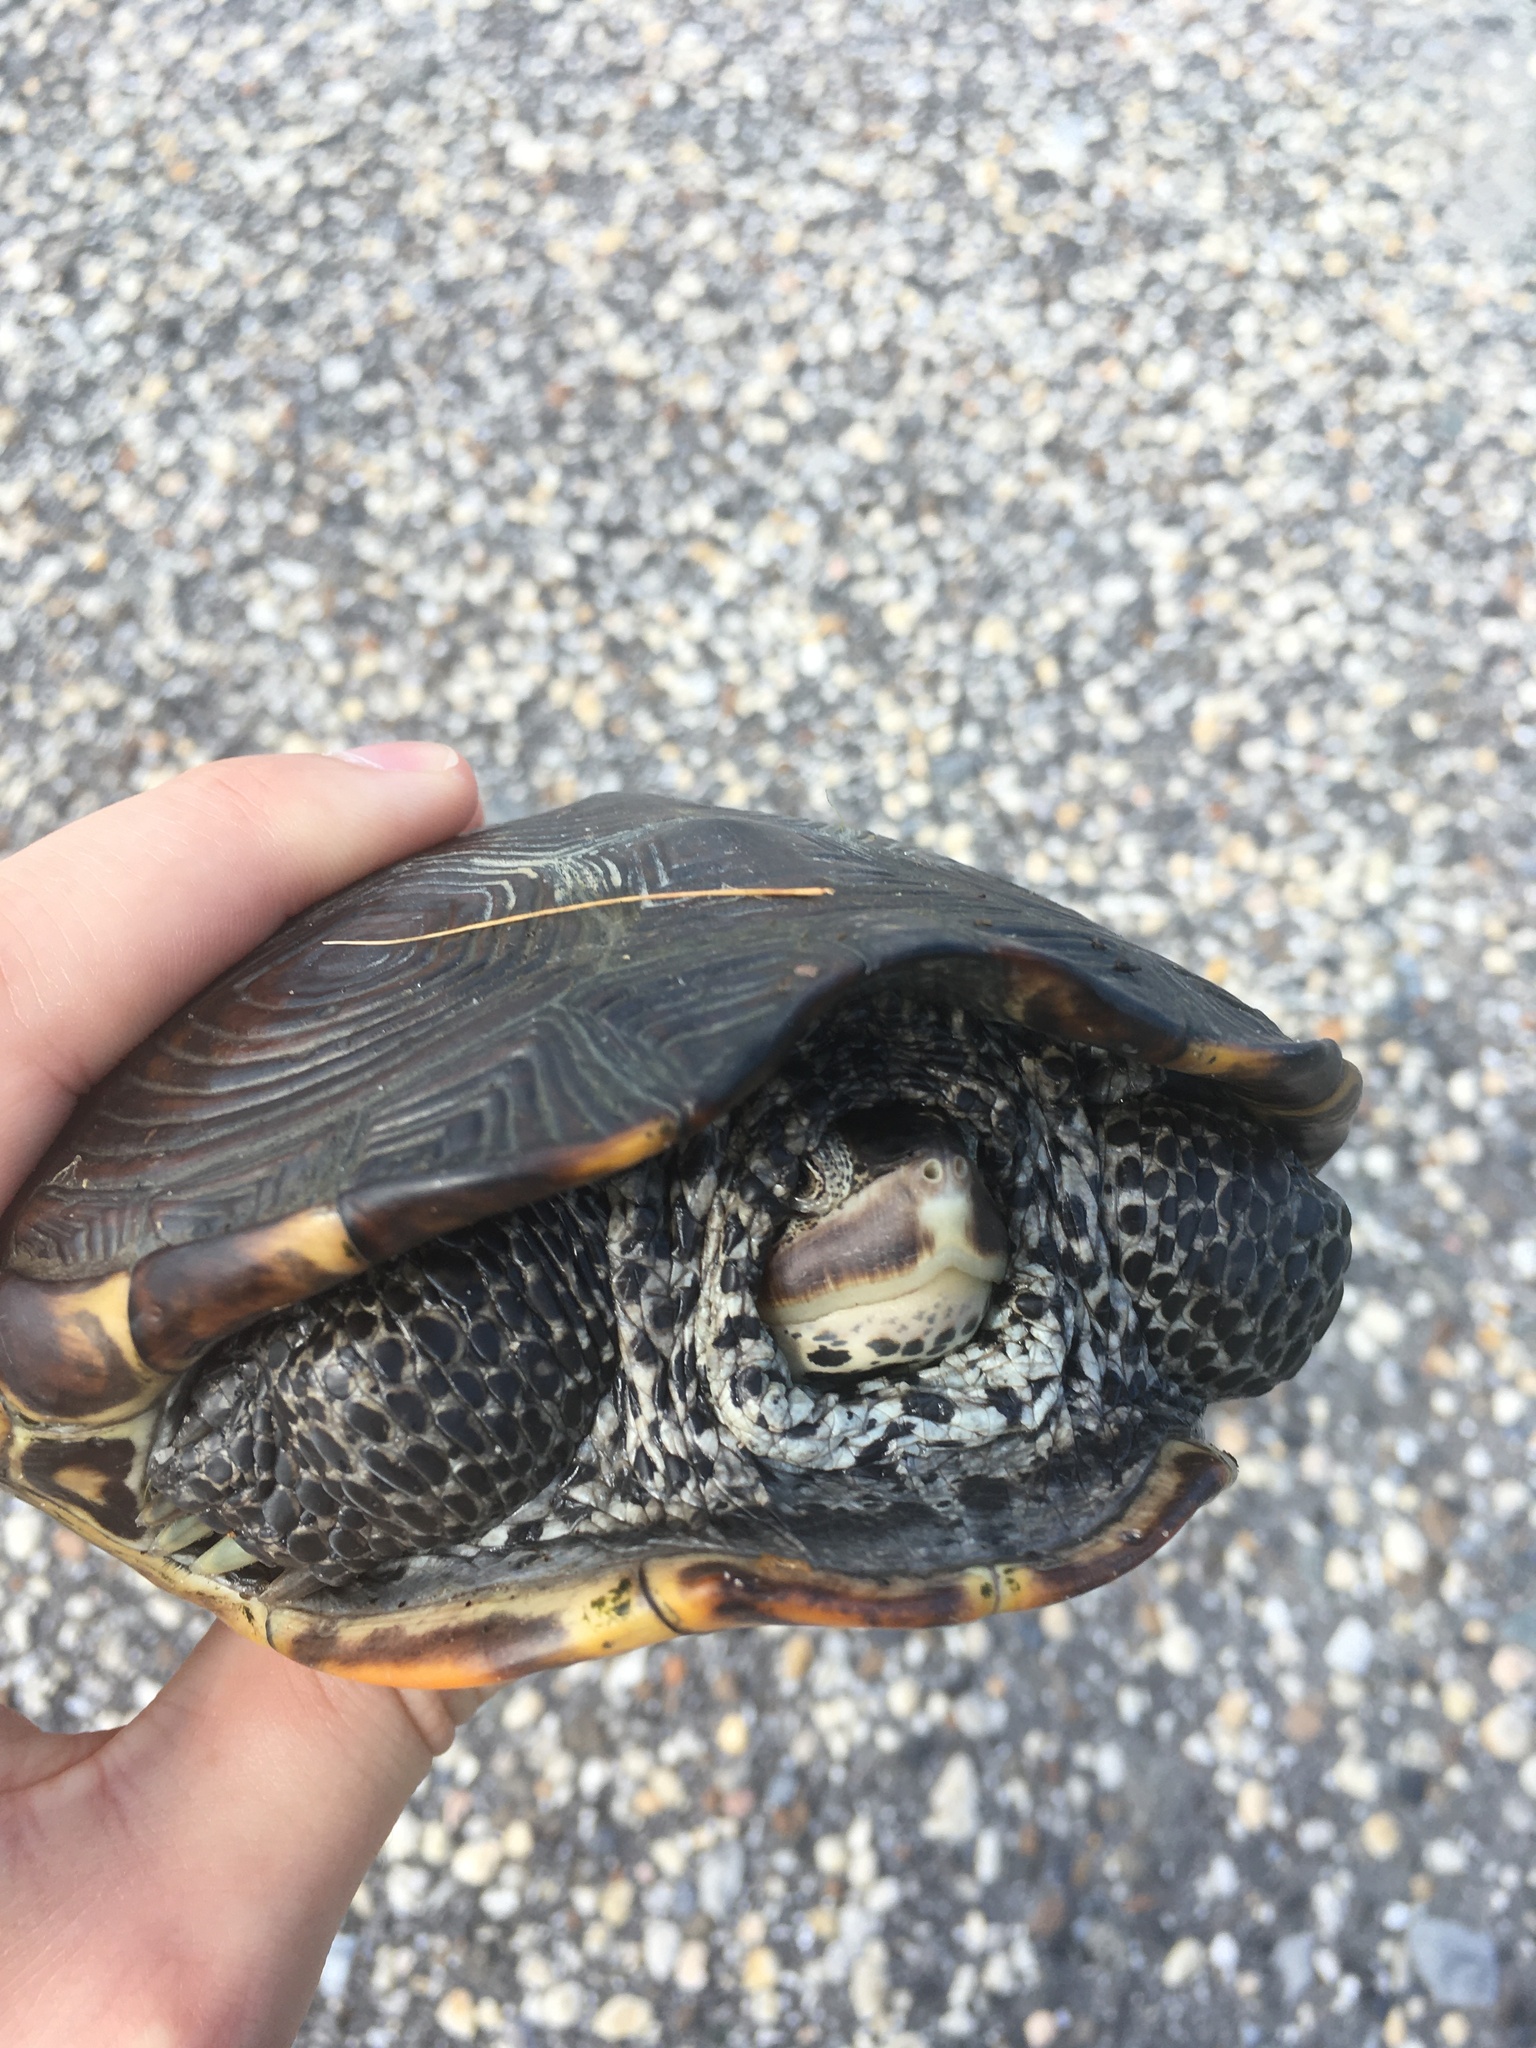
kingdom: Animalia
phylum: Chordata
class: Testudines
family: Emydidae
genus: Malaclemys
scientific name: Malaclemys terrapin
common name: Diamondback terrapin
